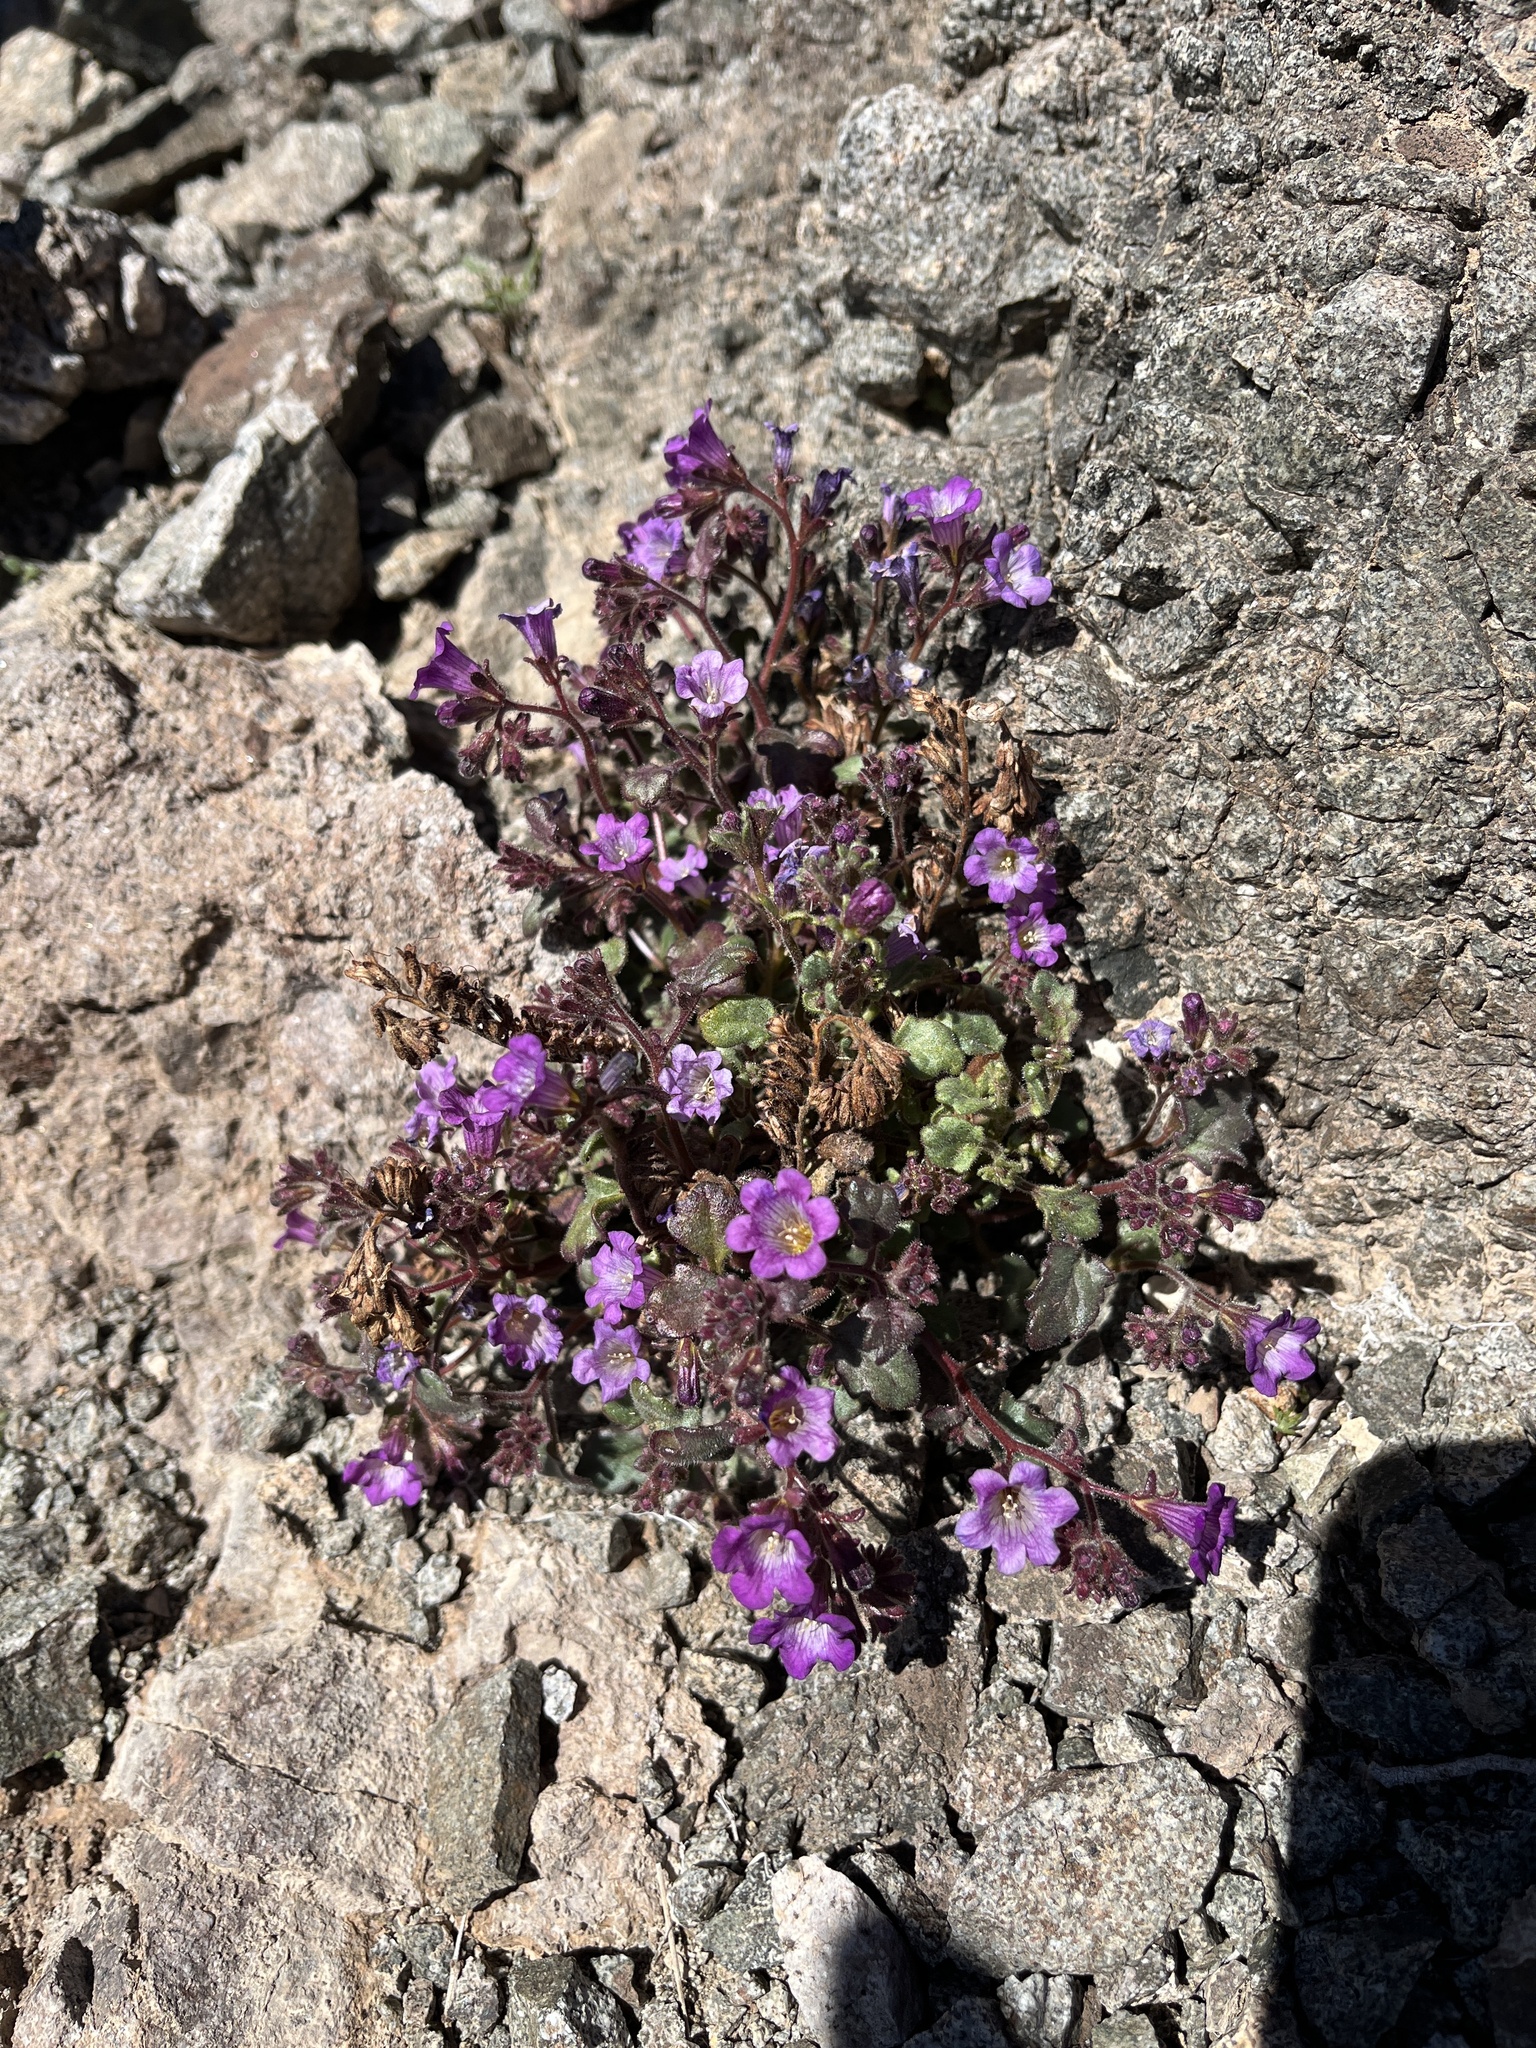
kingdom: Plantae
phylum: Tracheophyta
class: Magnoliopsida
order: Boraginales
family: Hydrophyllaceae
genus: Phacelia
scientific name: Phacelia pulchella
